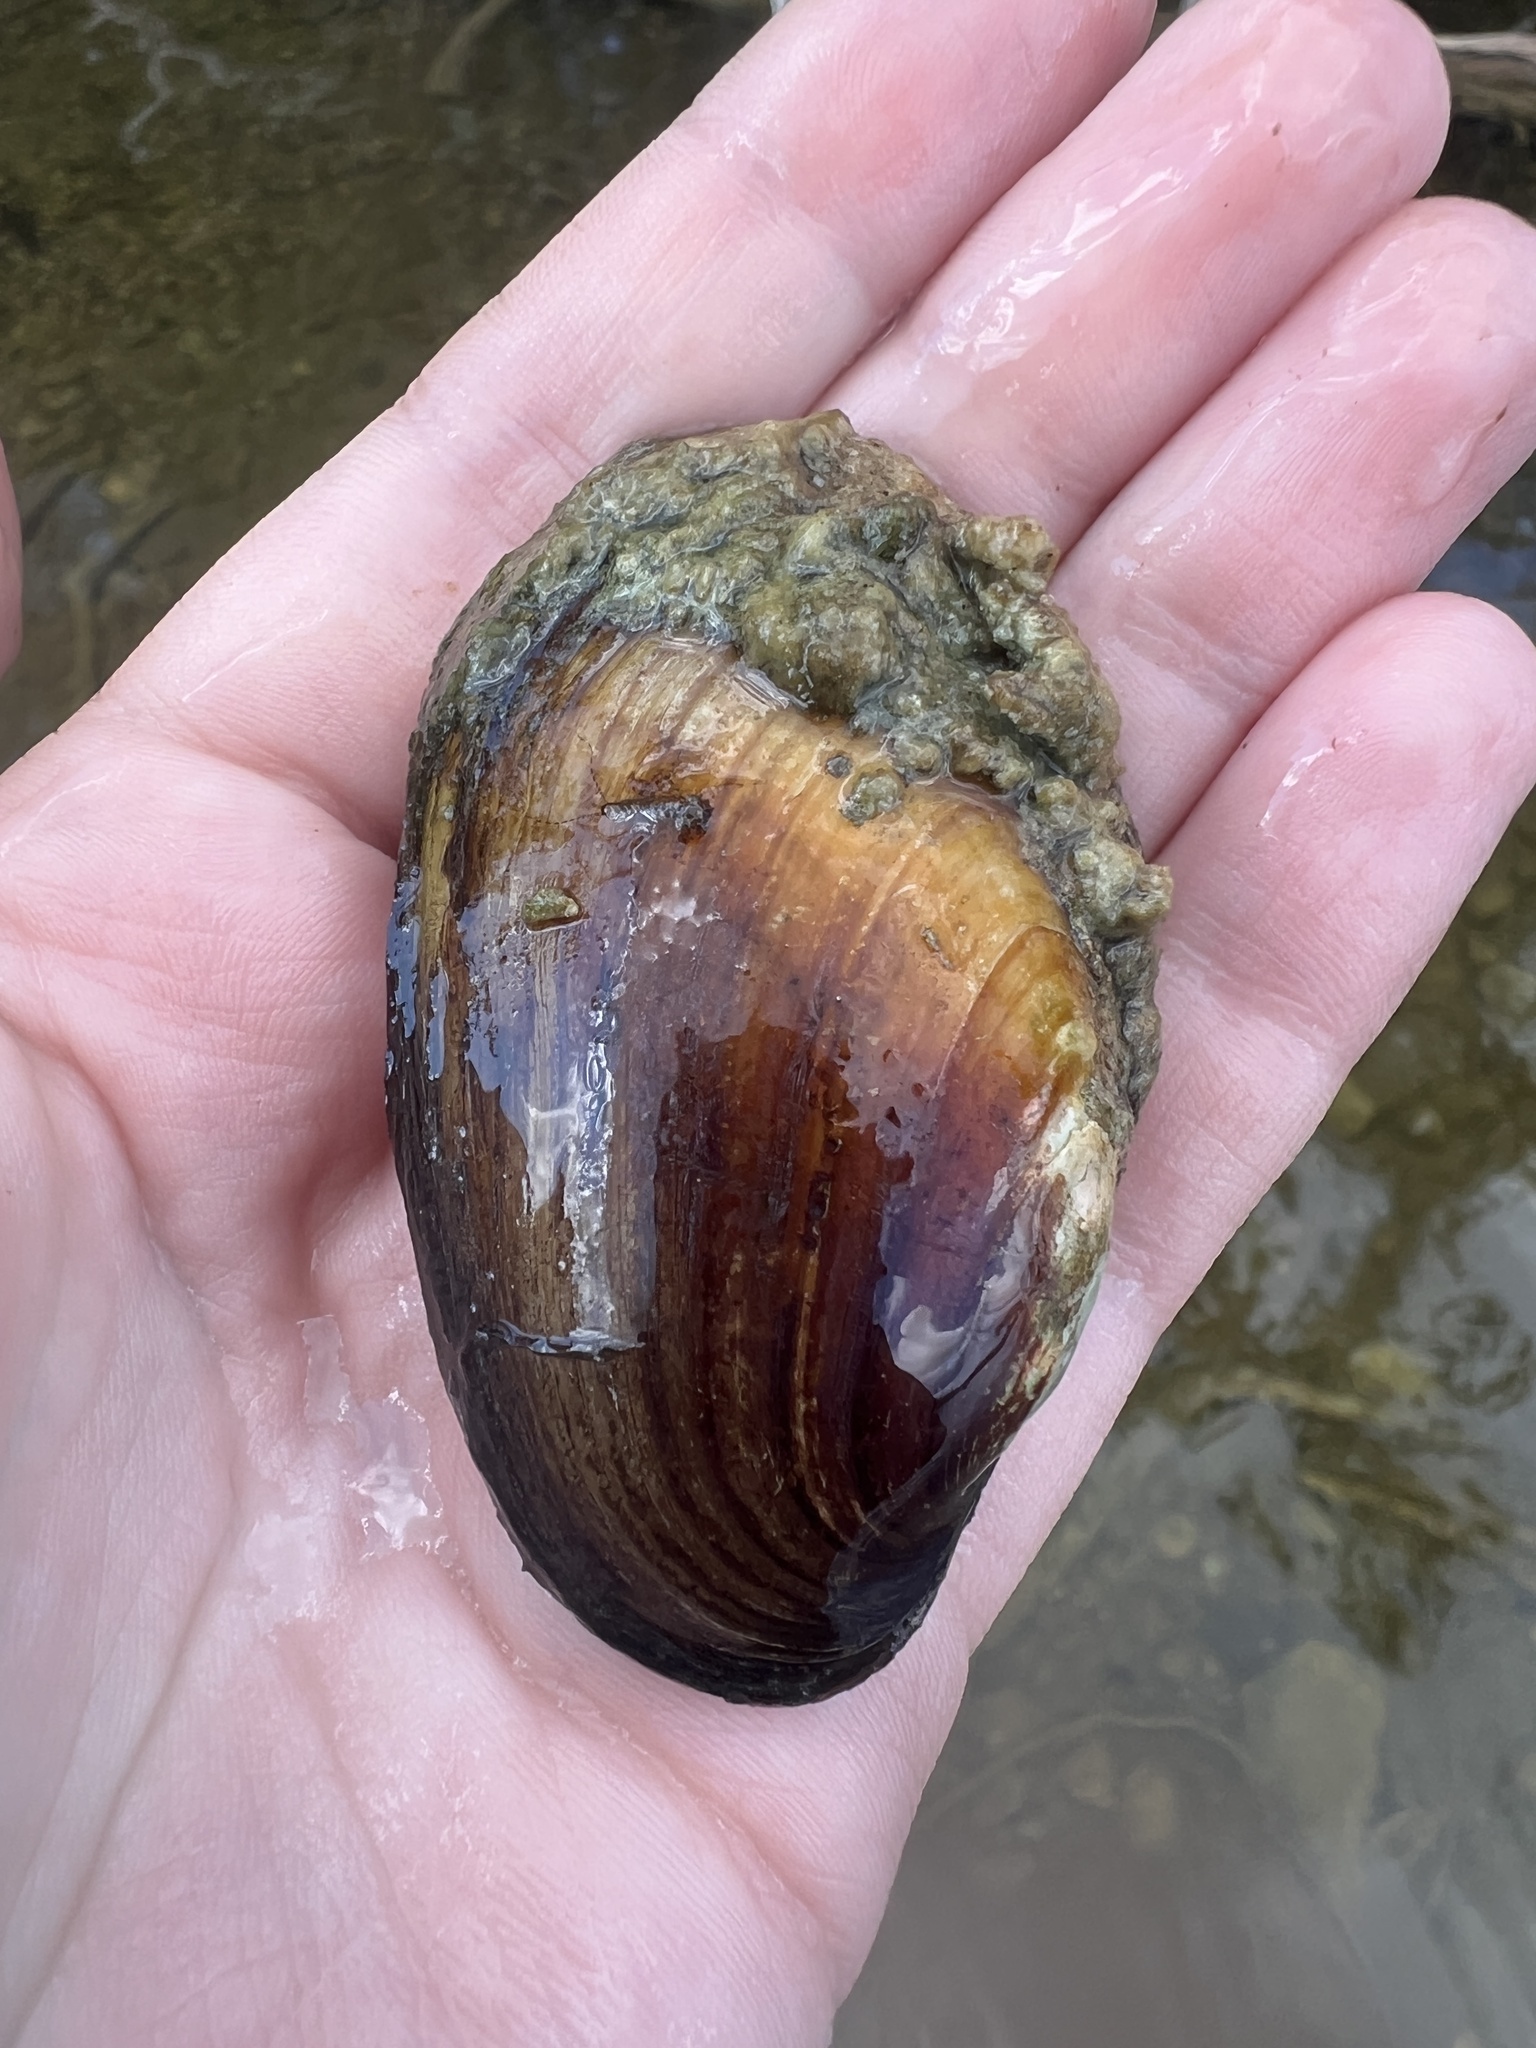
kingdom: Animalia
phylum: Mollusca
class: Bivalvia
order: Unionida
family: Unionidae
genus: Lampsilis
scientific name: Lampsilis siliquoidea
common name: Fatmucket
